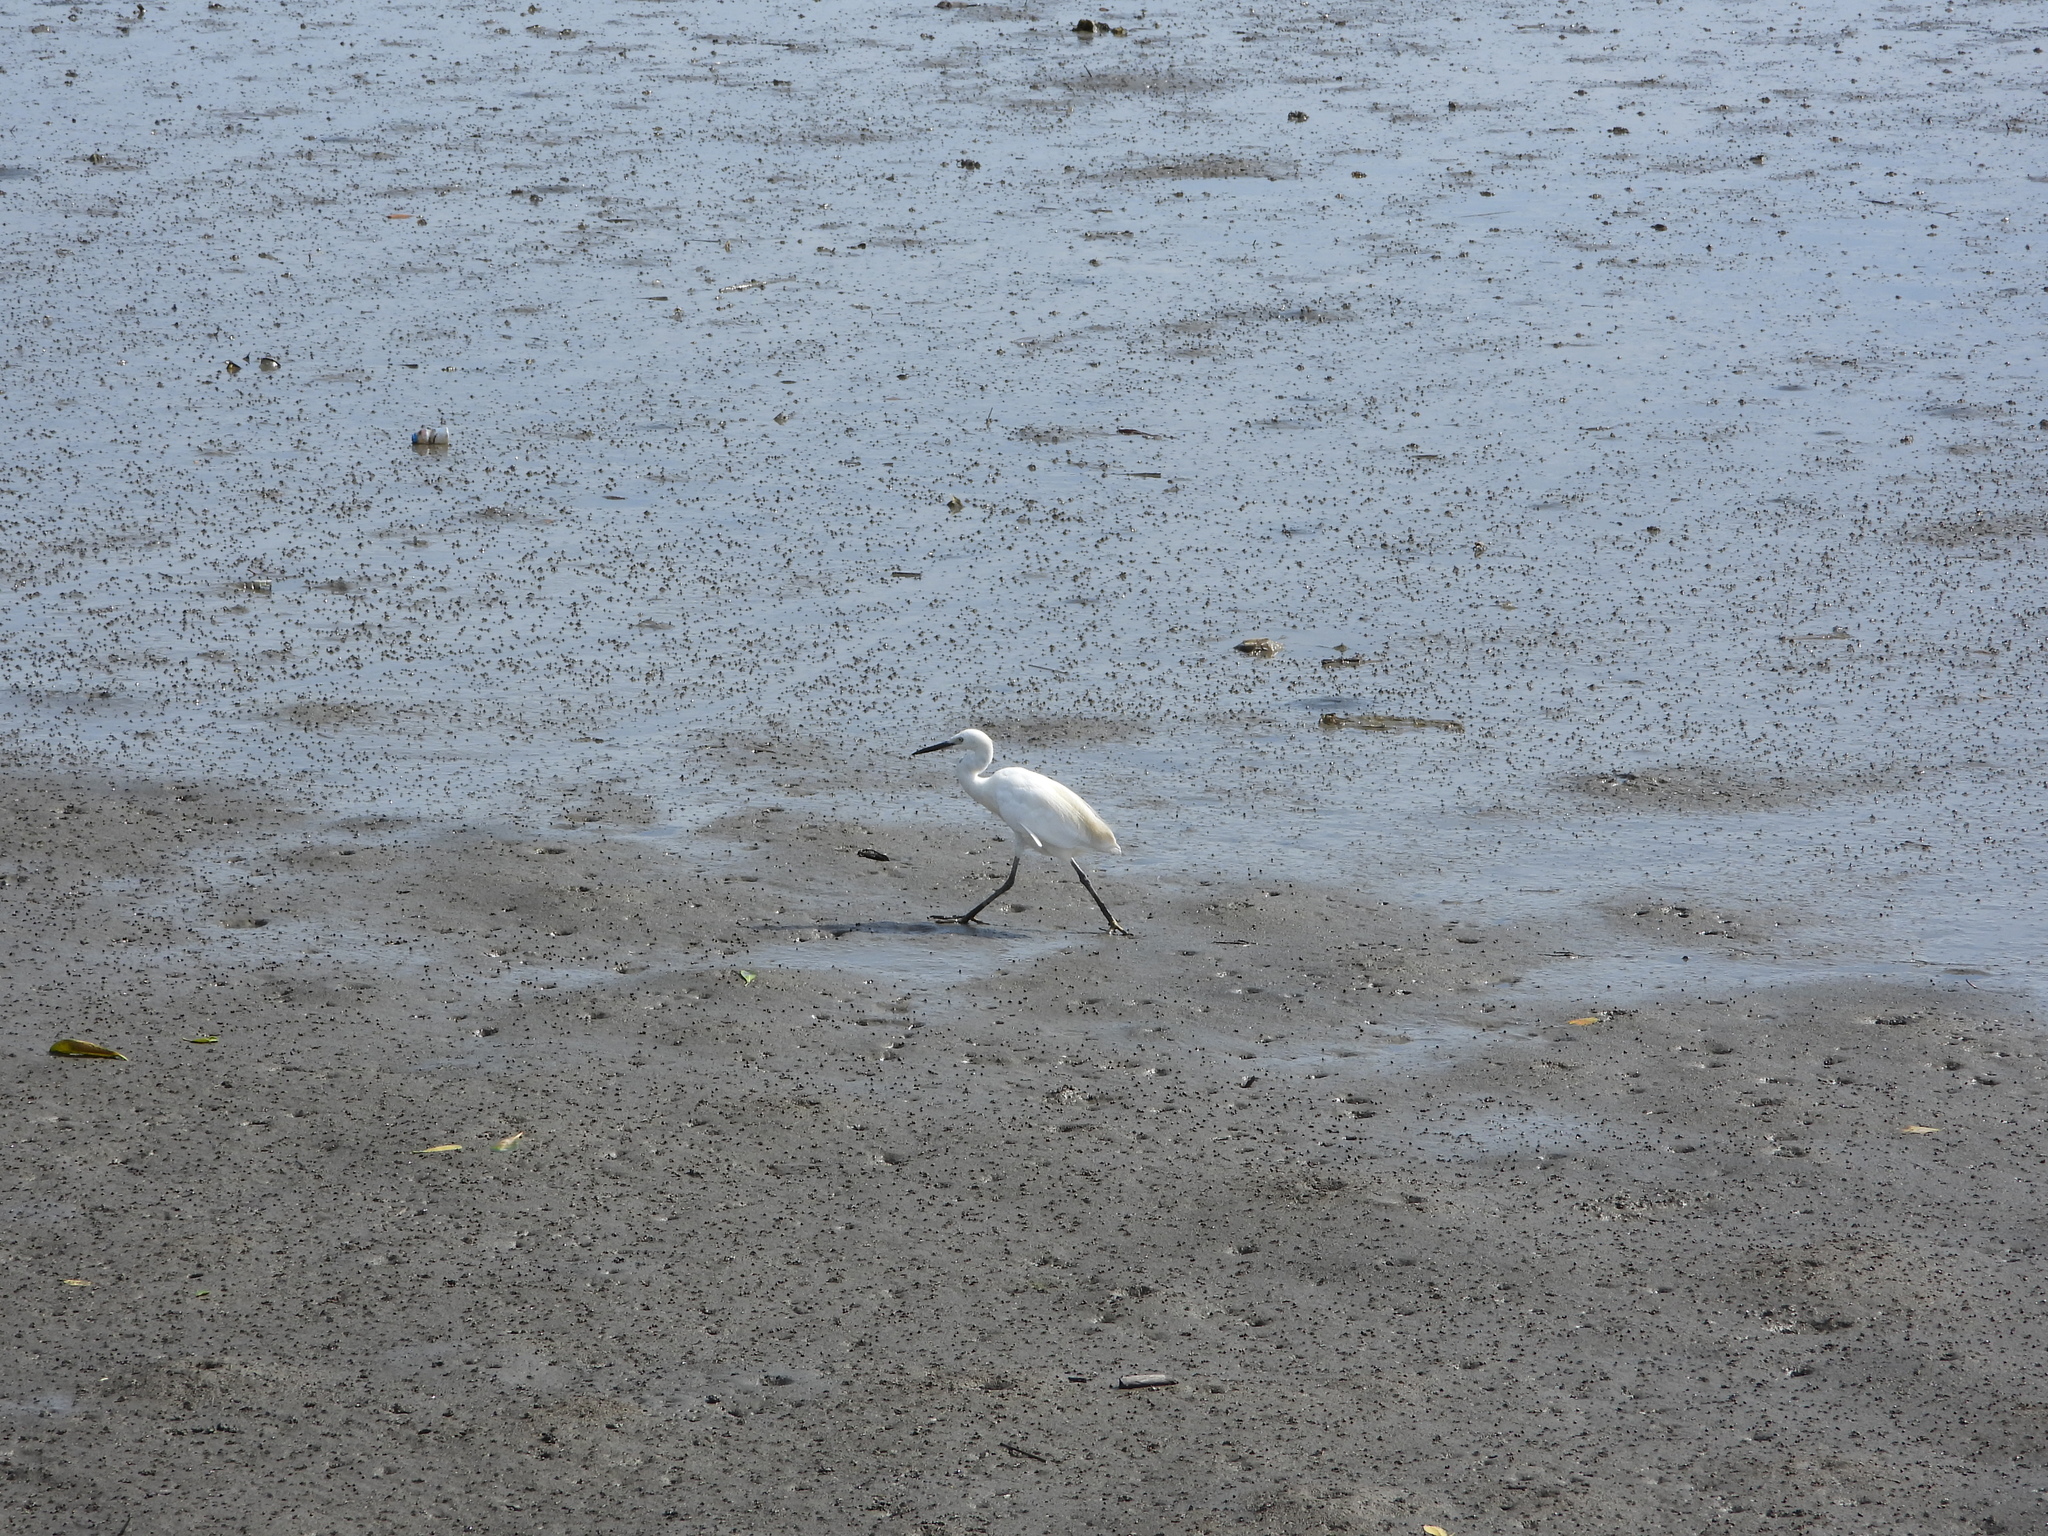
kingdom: Animalia
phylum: Chordata
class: Aves
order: Pelecaniformes
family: Ardeidae
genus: Egretta
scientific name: Egretta garzetta
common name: Little egret
